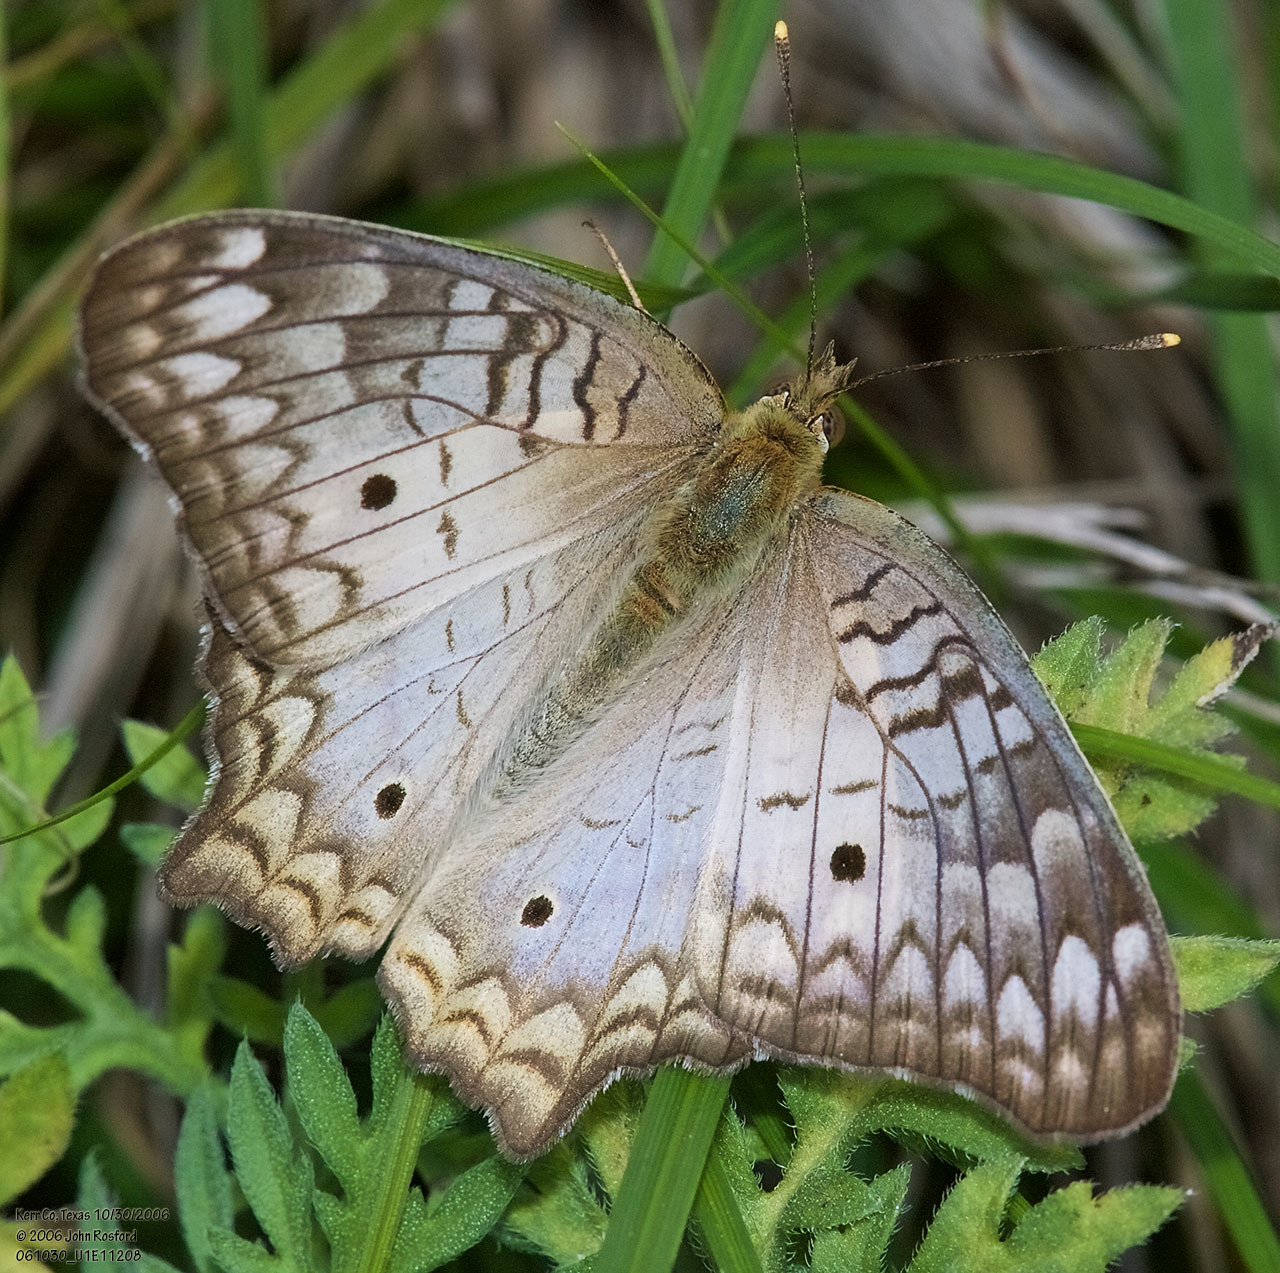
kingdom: Animalia
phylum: Arthropoda
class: Insecta
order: Lepidoptera
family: Nymphalidae
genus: Anartia
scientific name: Anartia jatrophae
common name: White peacock
